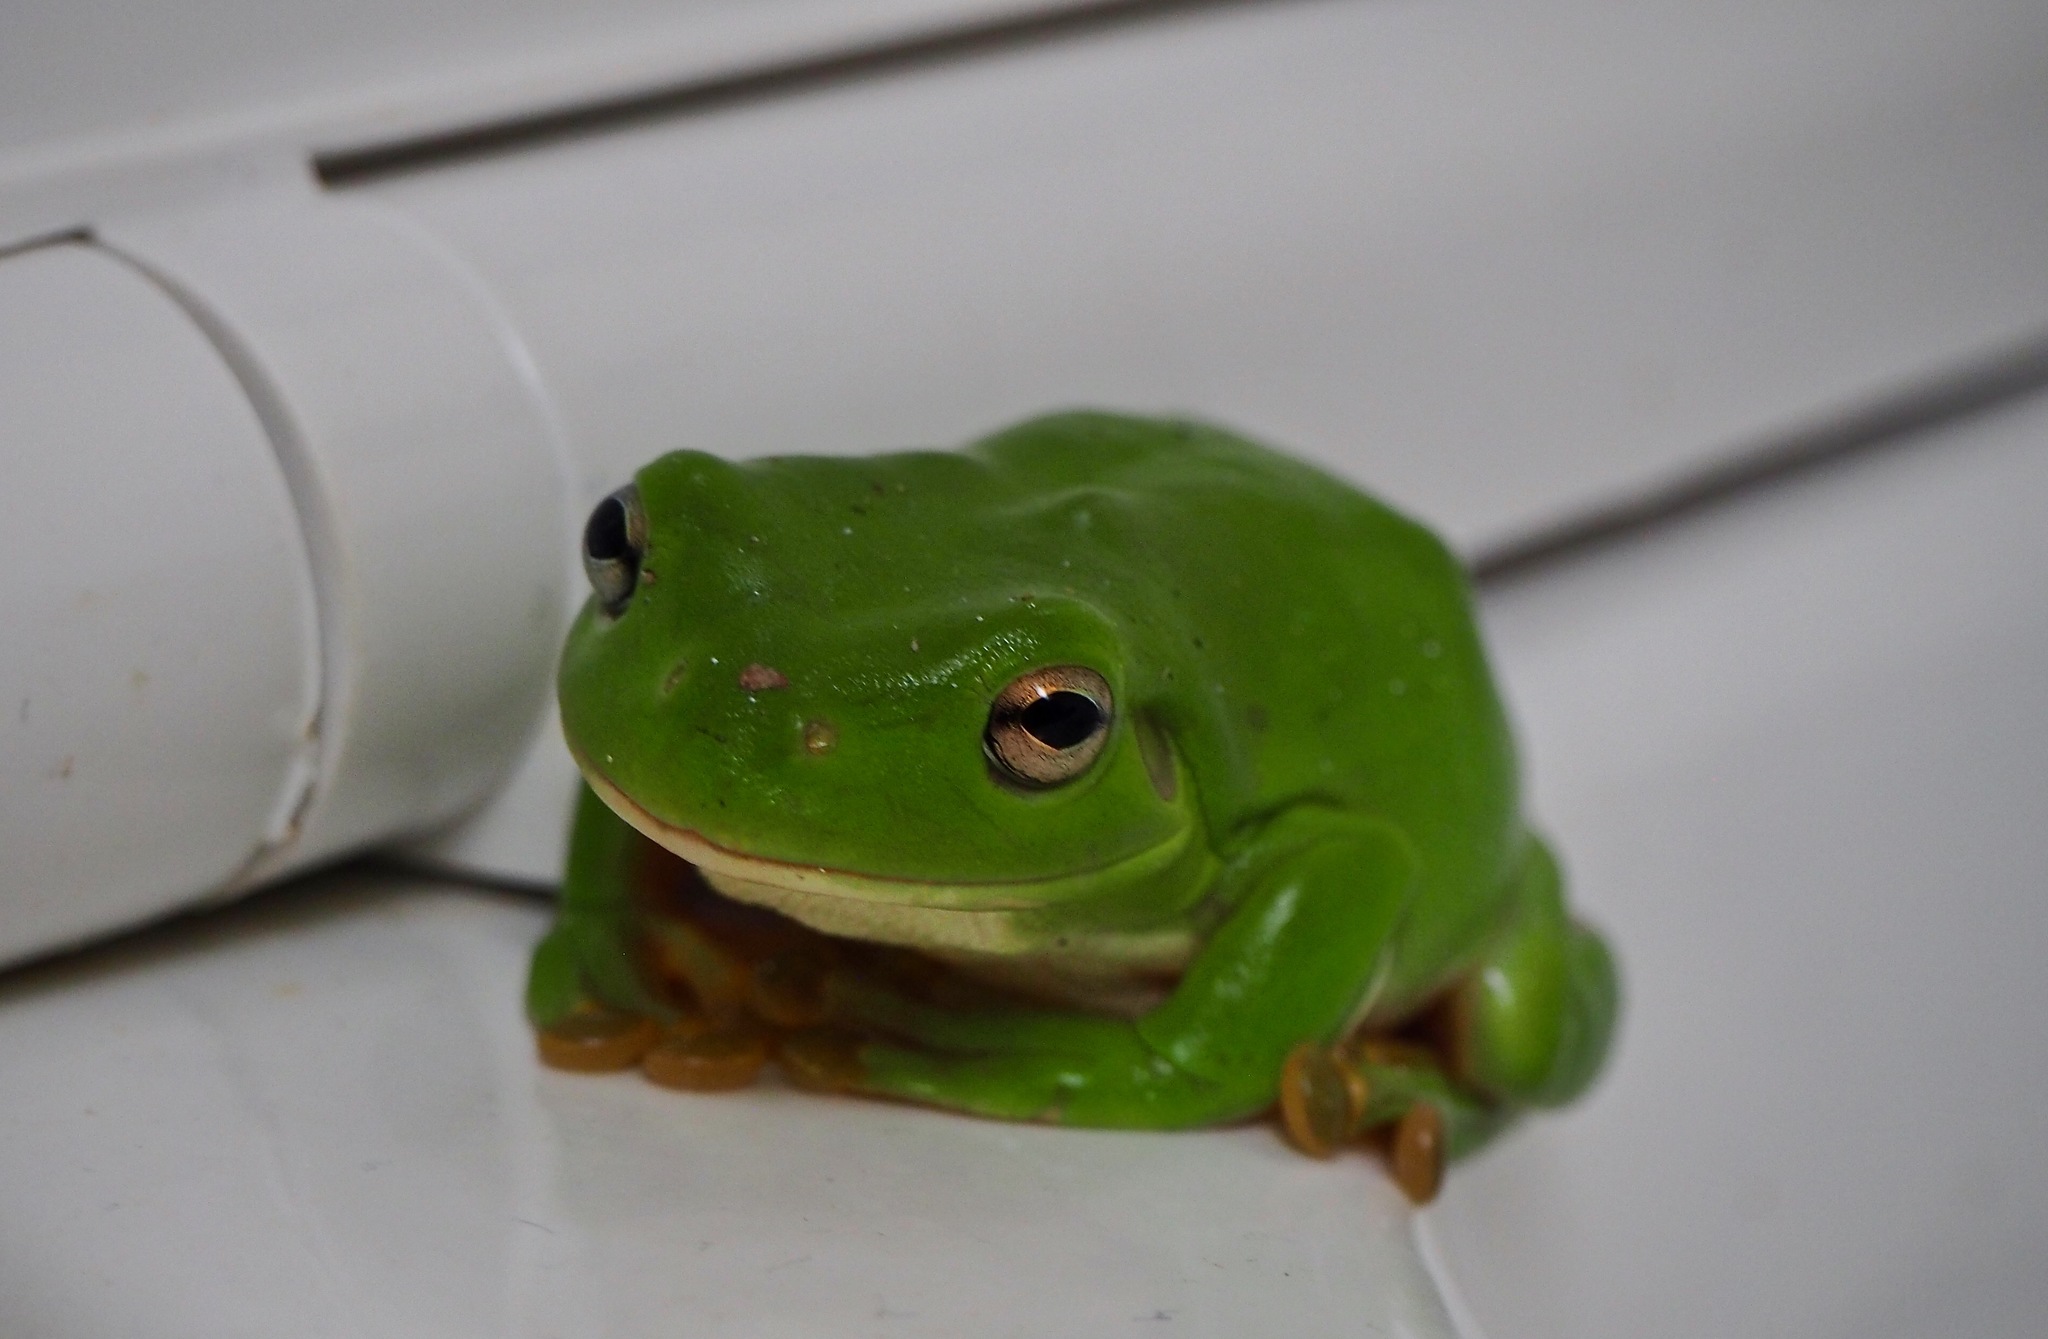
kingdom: Animalia
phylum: Chordata
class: Amphibia
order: Anura
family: Pelodryadidae
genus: Ranoidea
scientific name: Ranoidea caerulea
